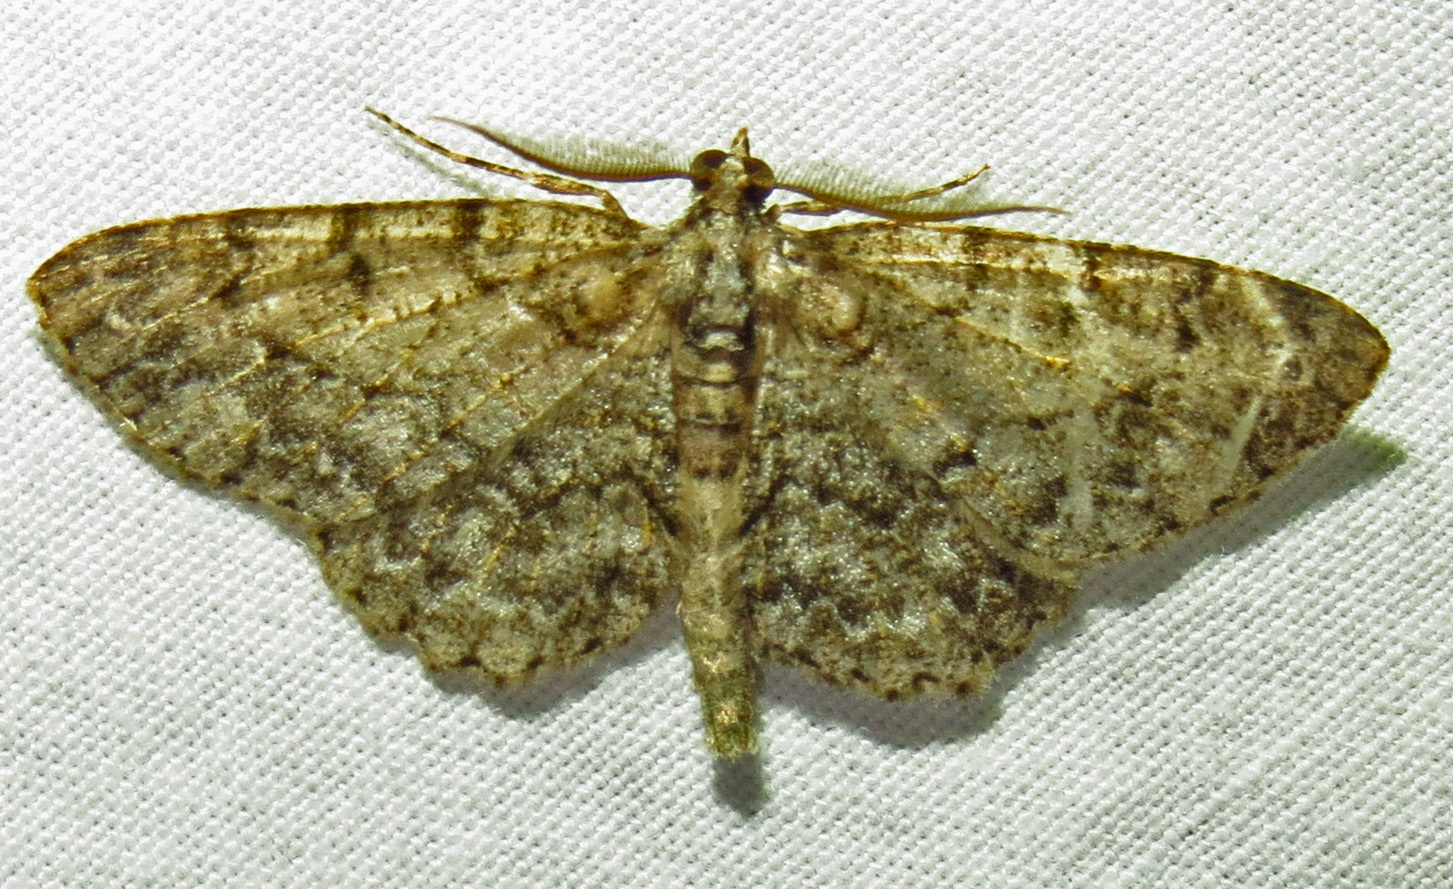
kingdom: Animalia
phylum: Arthropoda
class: Insecta
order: Lepidoptera
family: Geometridae
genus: Protoboarmia
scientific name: Protoboarmia porcelaria
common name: Porcelain gray
